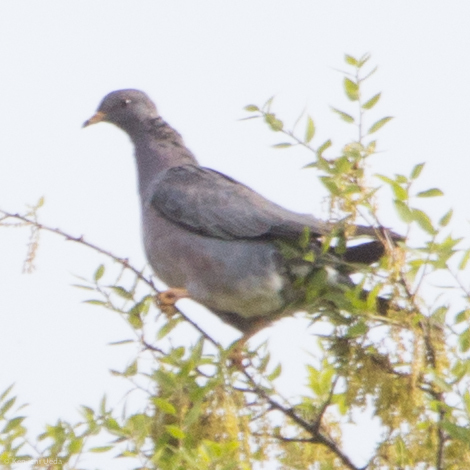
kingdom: Animalia
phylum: Chordata
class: Aves
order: Columbiformes
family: Columbidae
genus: Patagioenas
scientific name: Patagioenas fasciata
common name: Band-tailed pigeon
